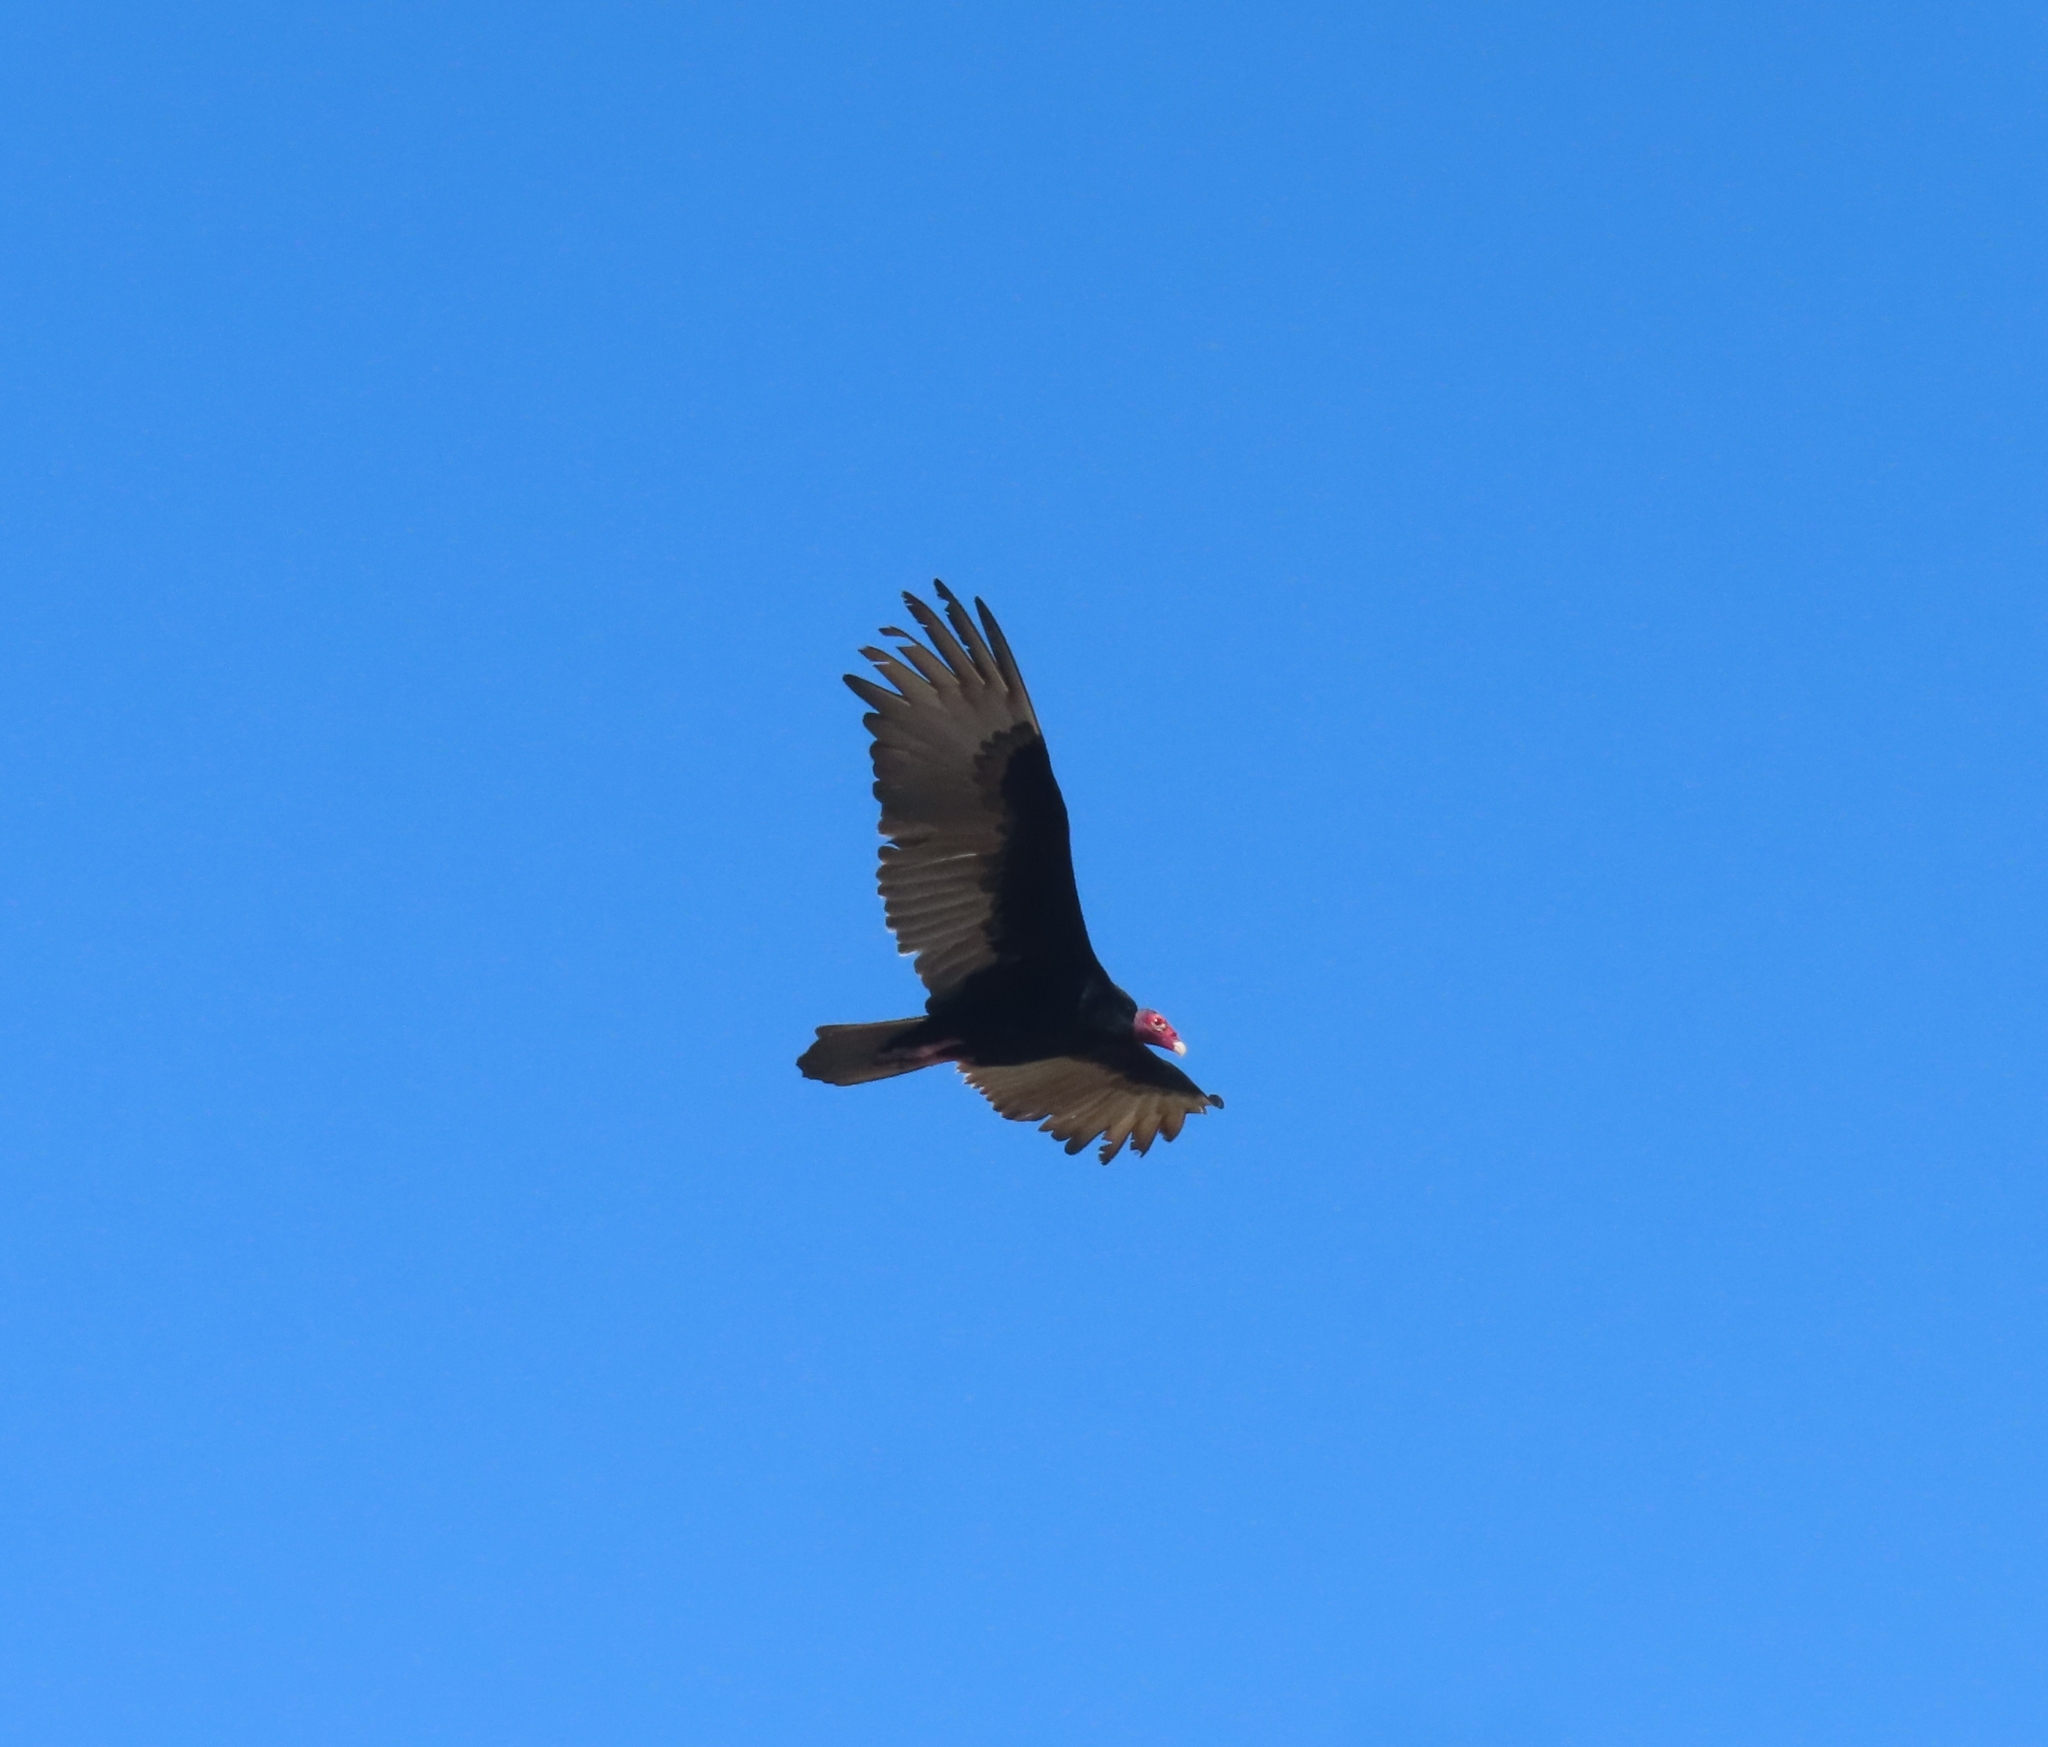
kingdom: Animalia
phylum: Chordata
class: Aves
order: Accipitriformes
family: Cathartidae
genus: Cathartes
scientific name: Cathartes aura
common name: Turkey vulture
